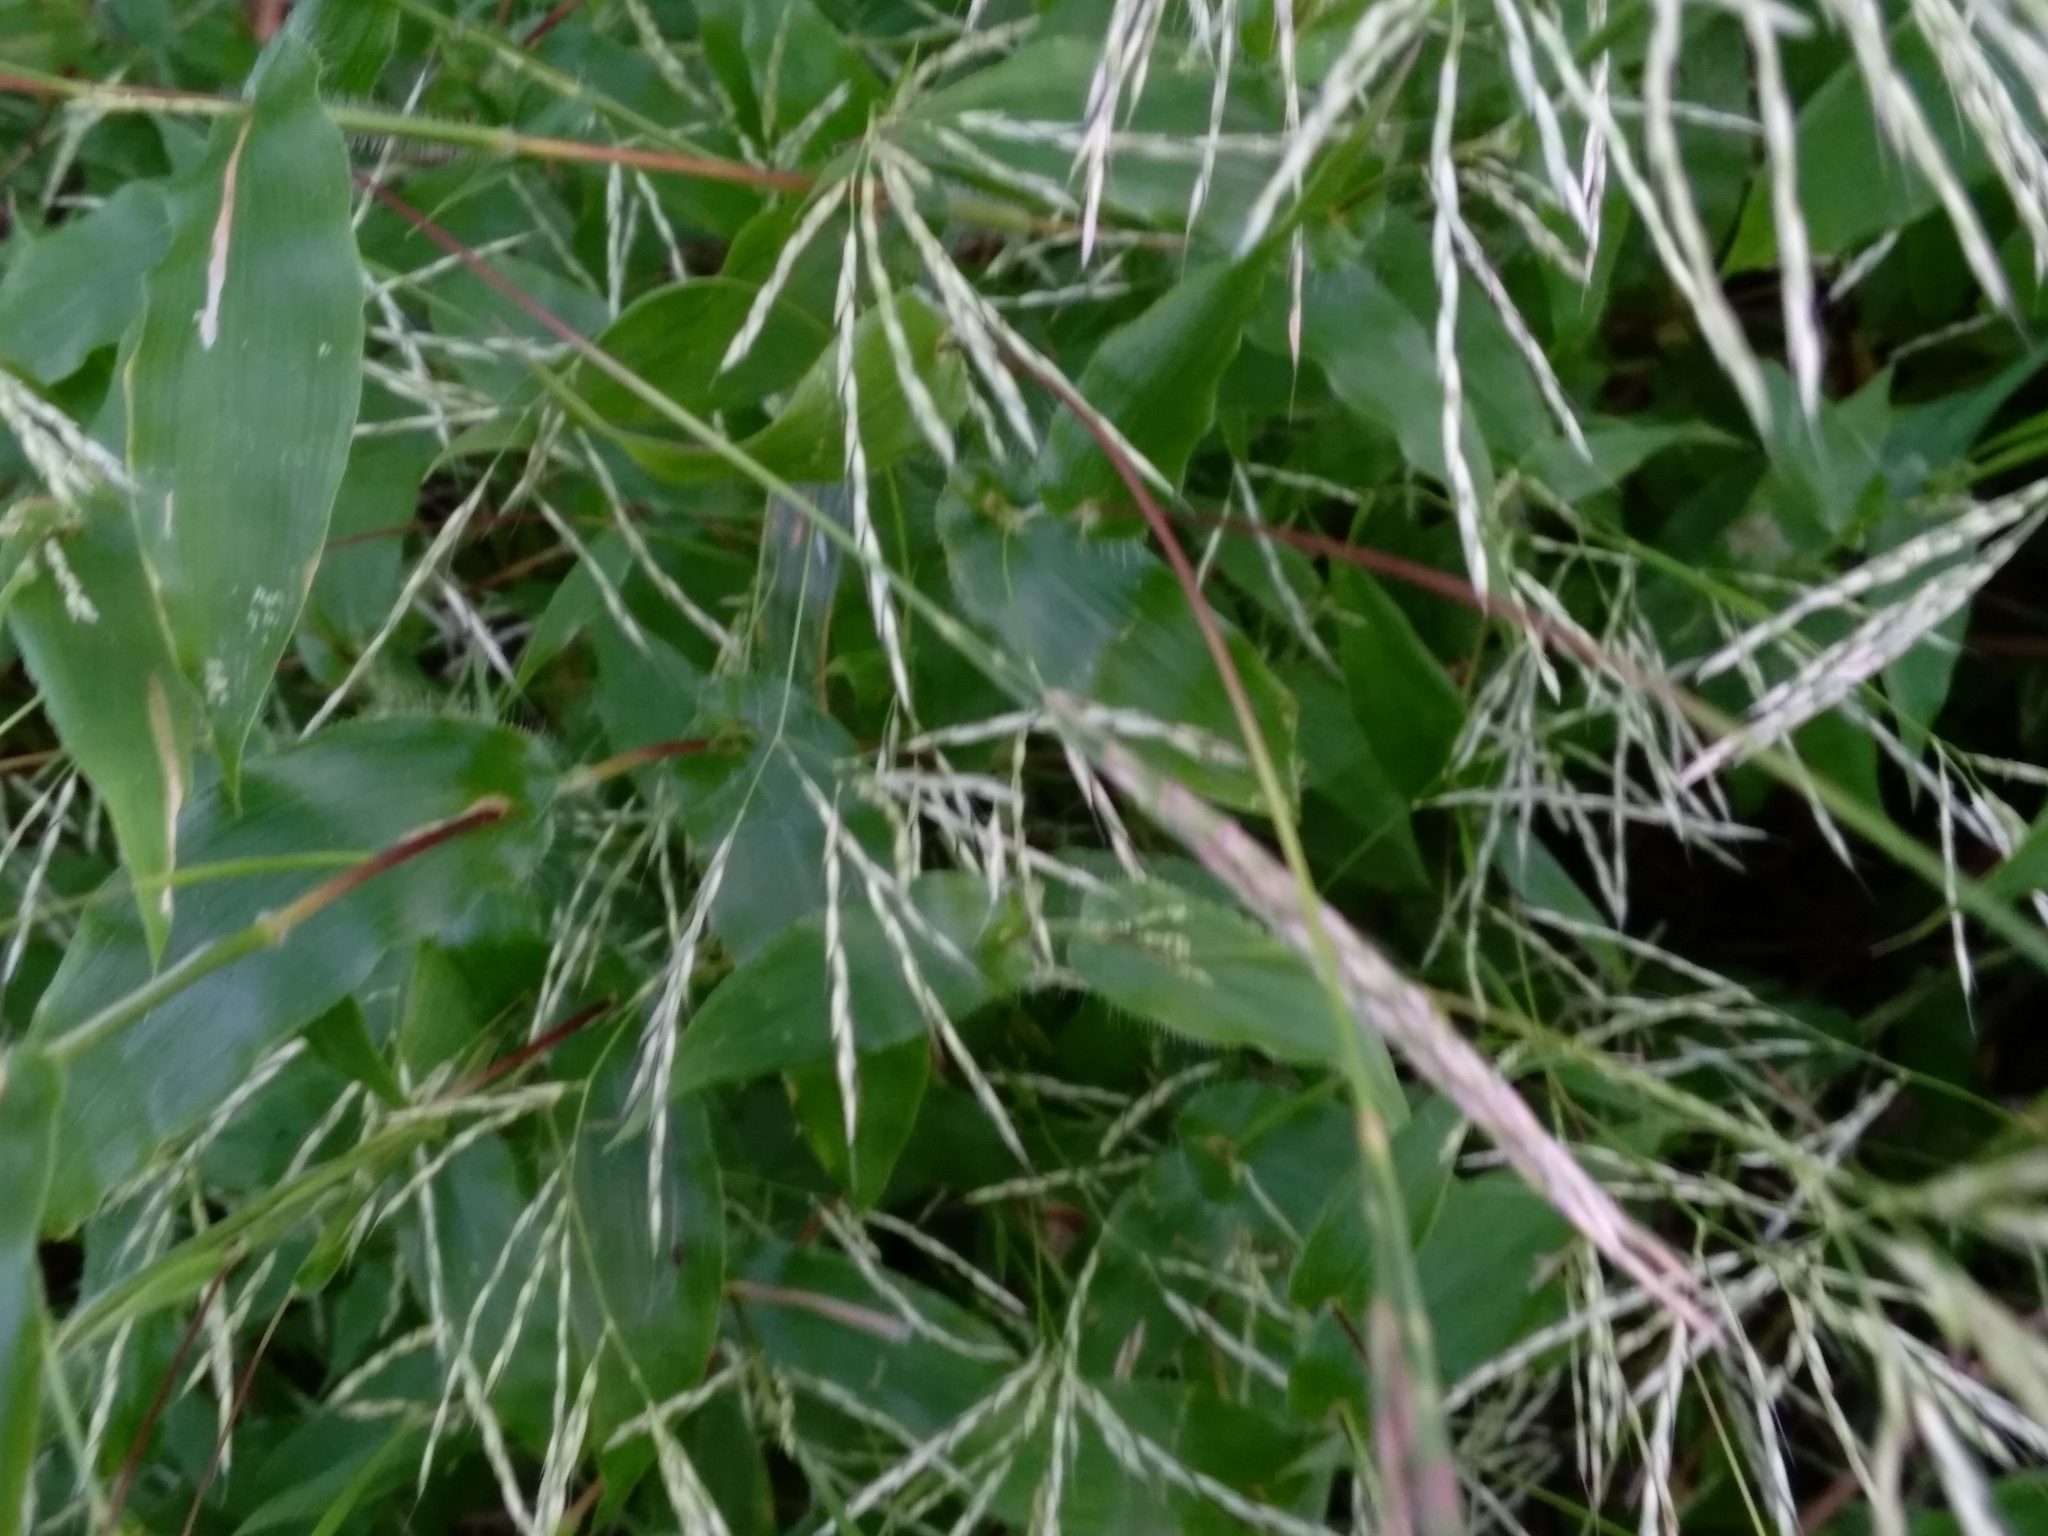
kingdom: Plantae
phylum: Tracheophyta
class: Liliopsida
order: Poales
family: Poaceae
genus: Arthraxon
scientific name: Arthraxon hispidus
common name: Small carpgrass
